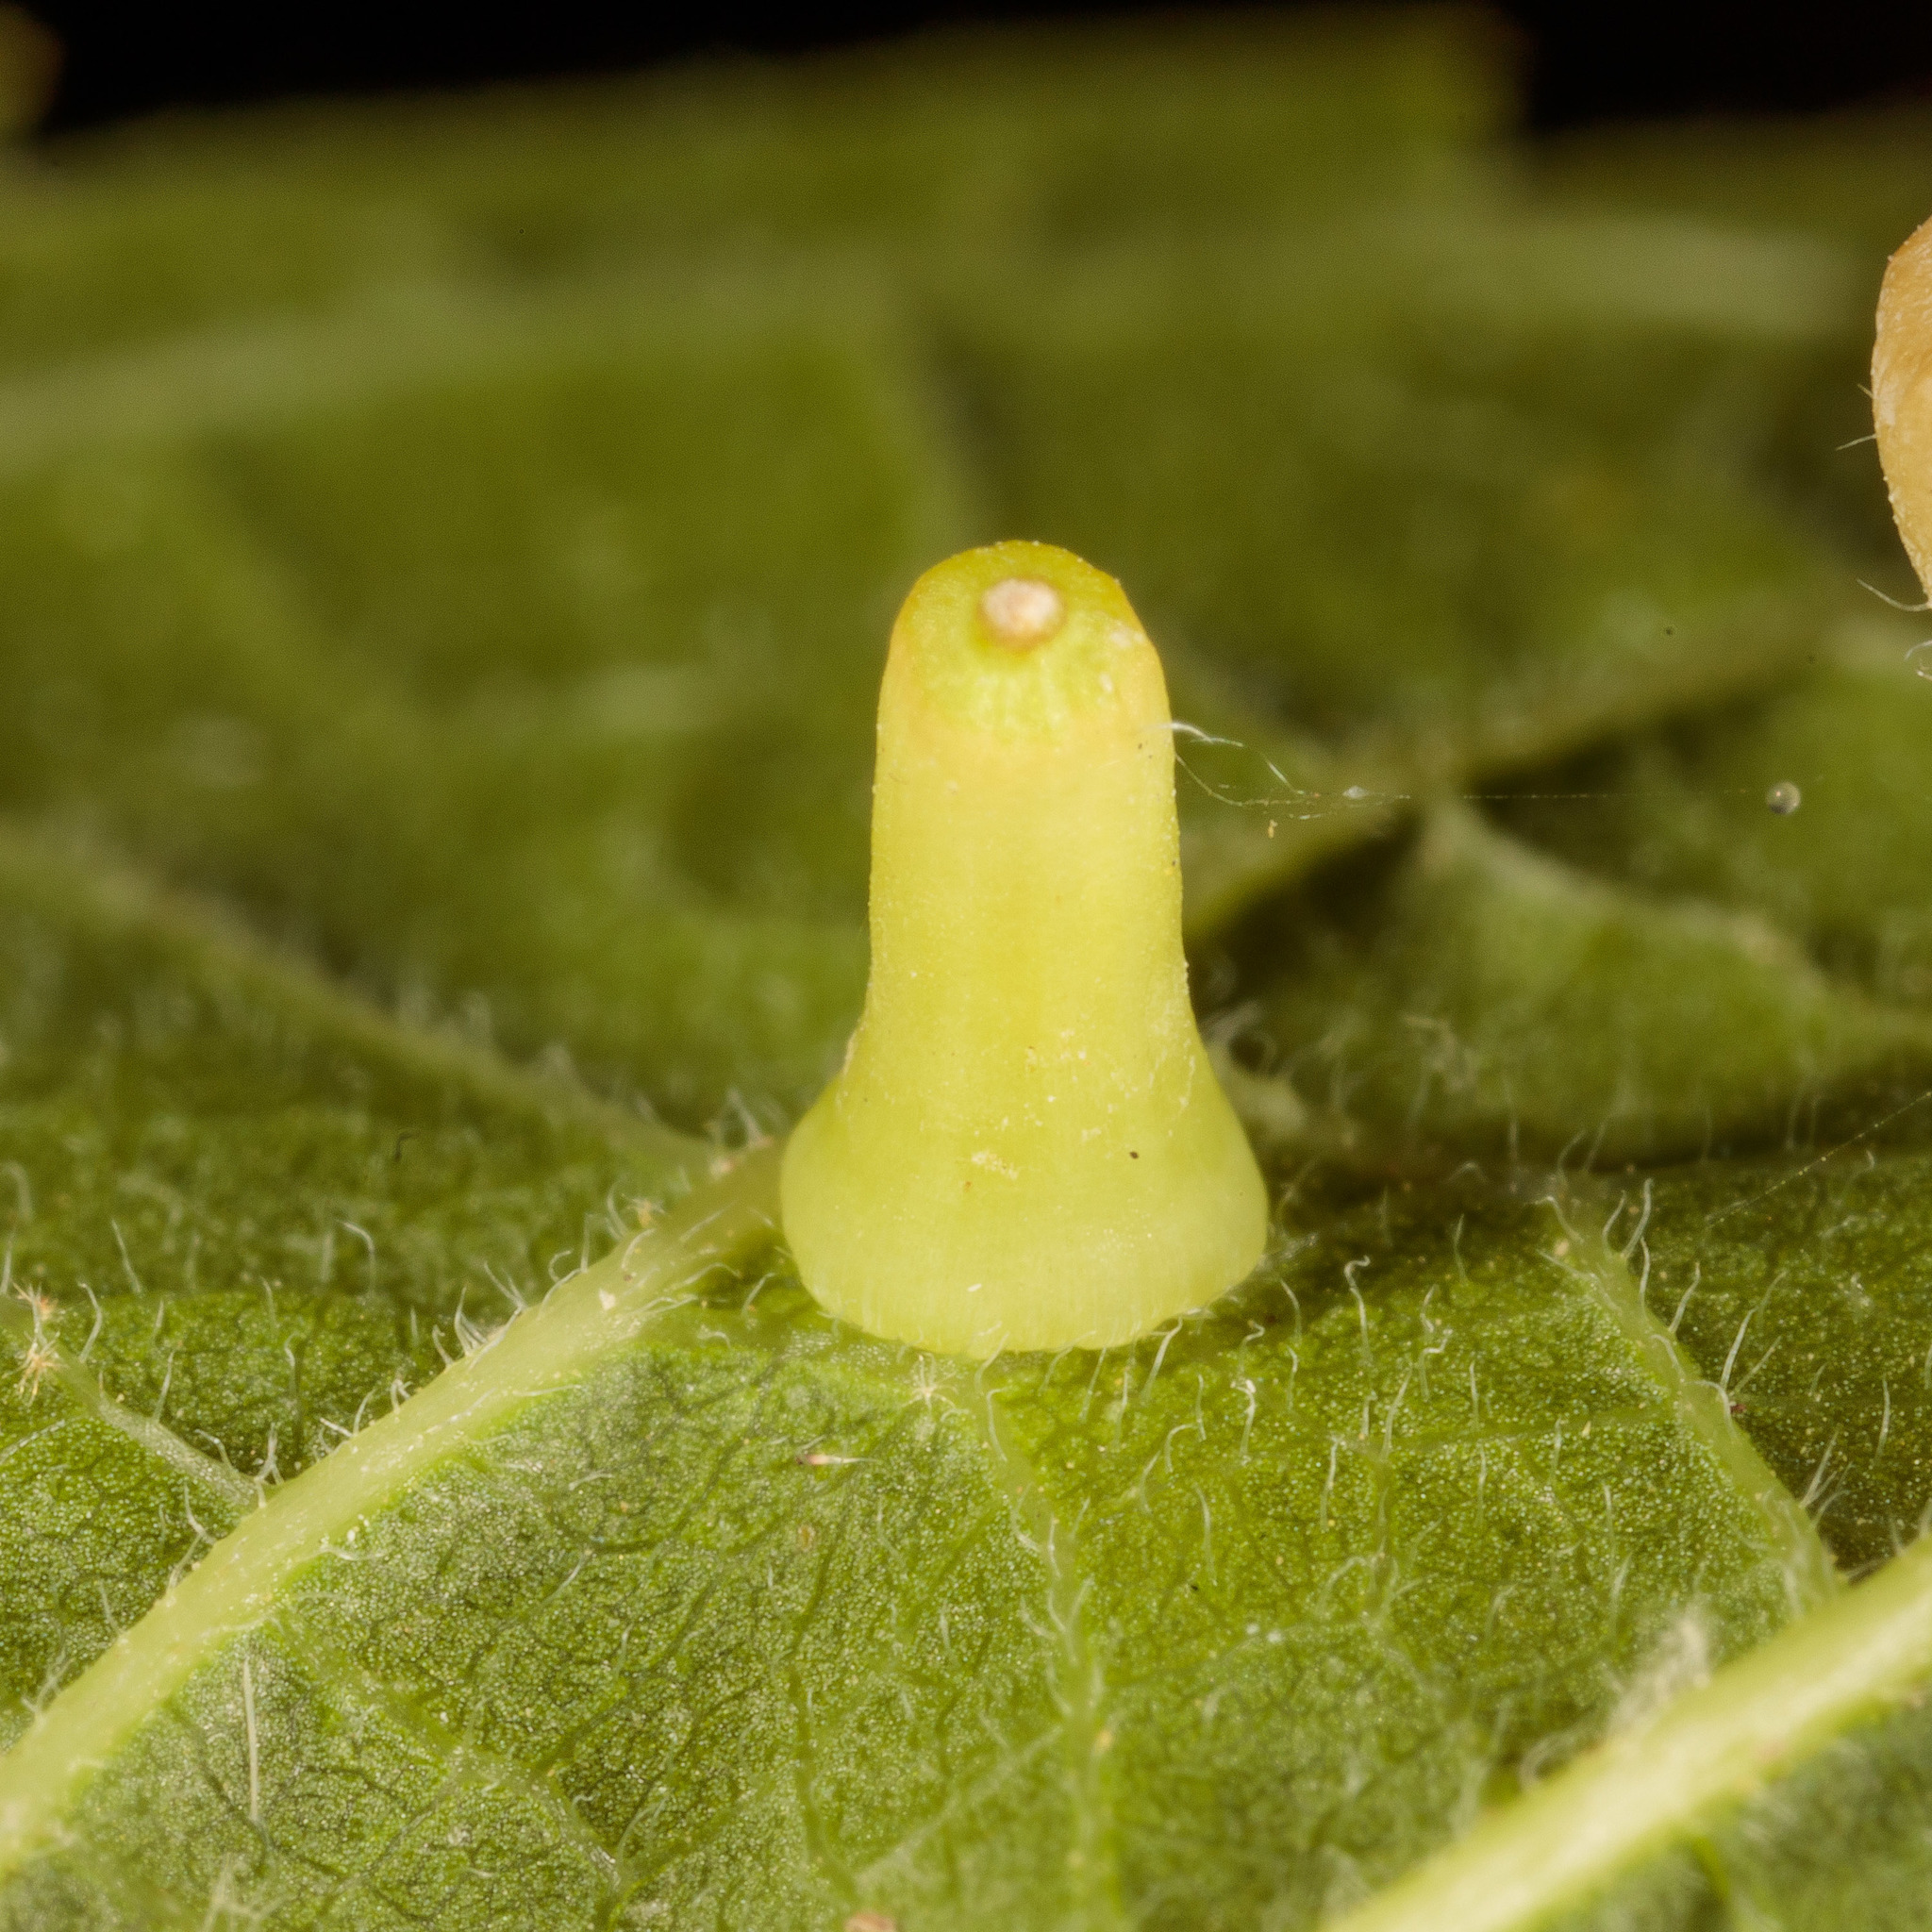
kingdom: Animalia
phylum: Arthropoda
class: Insecta
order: Diptera
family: Cecidomyiidae
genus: Celticecis
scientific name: Celticecis aciculata
